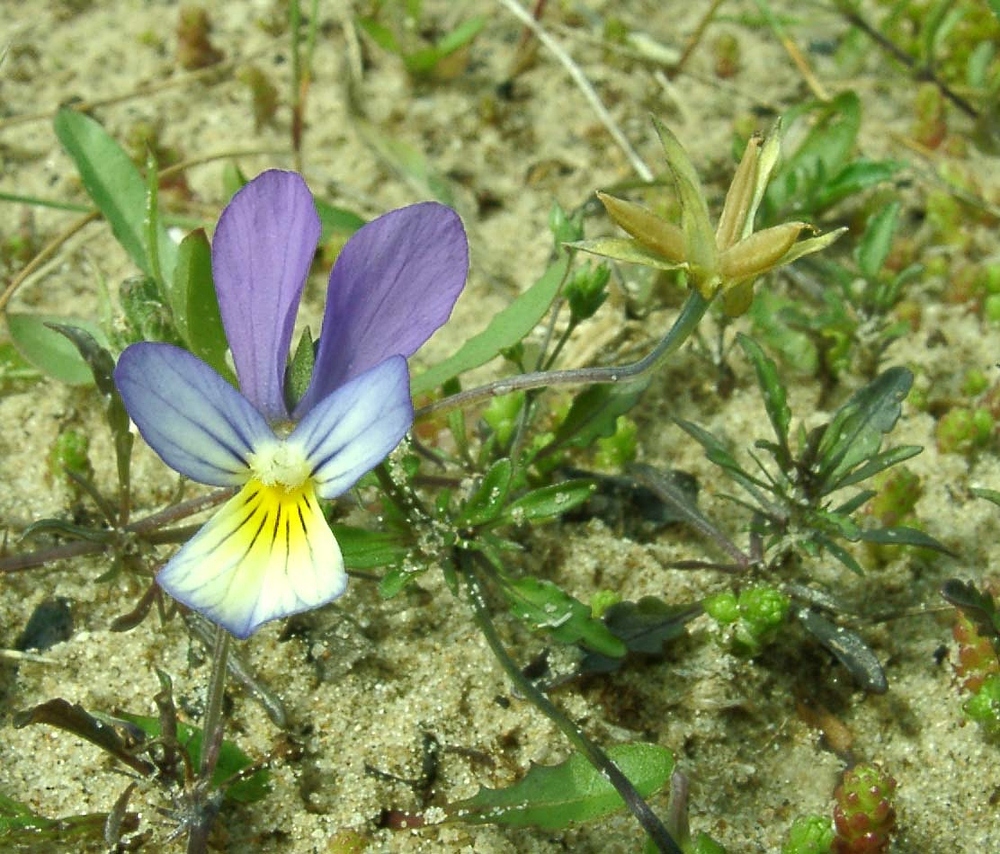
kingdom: Plantae
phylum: Tracheophyta
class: Magnoliopsida
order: Malpighiales
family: Violaceae
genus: Viola
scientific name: Viola tricolor
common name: Pansy
